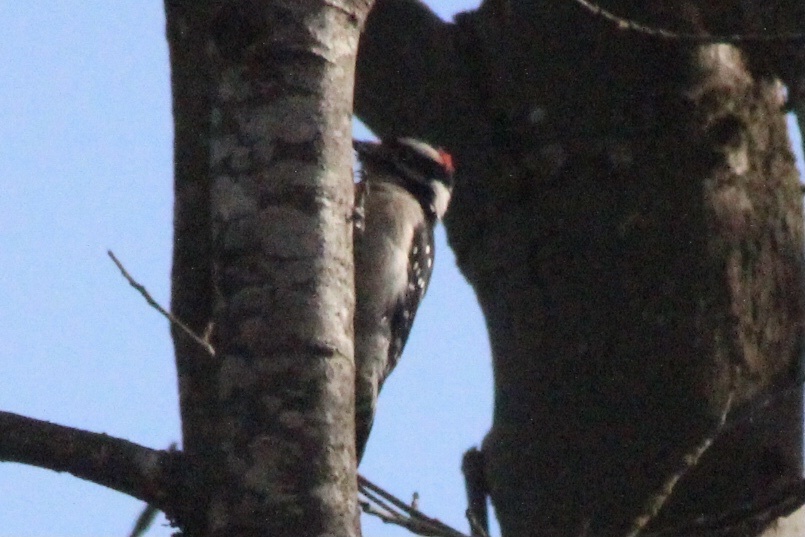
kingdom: Animalia
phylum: Chordata
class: Aves
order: Piciformes
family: Picidae
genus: Dryobates
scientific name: Dryobates pubescens
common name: Downy woodpecker
